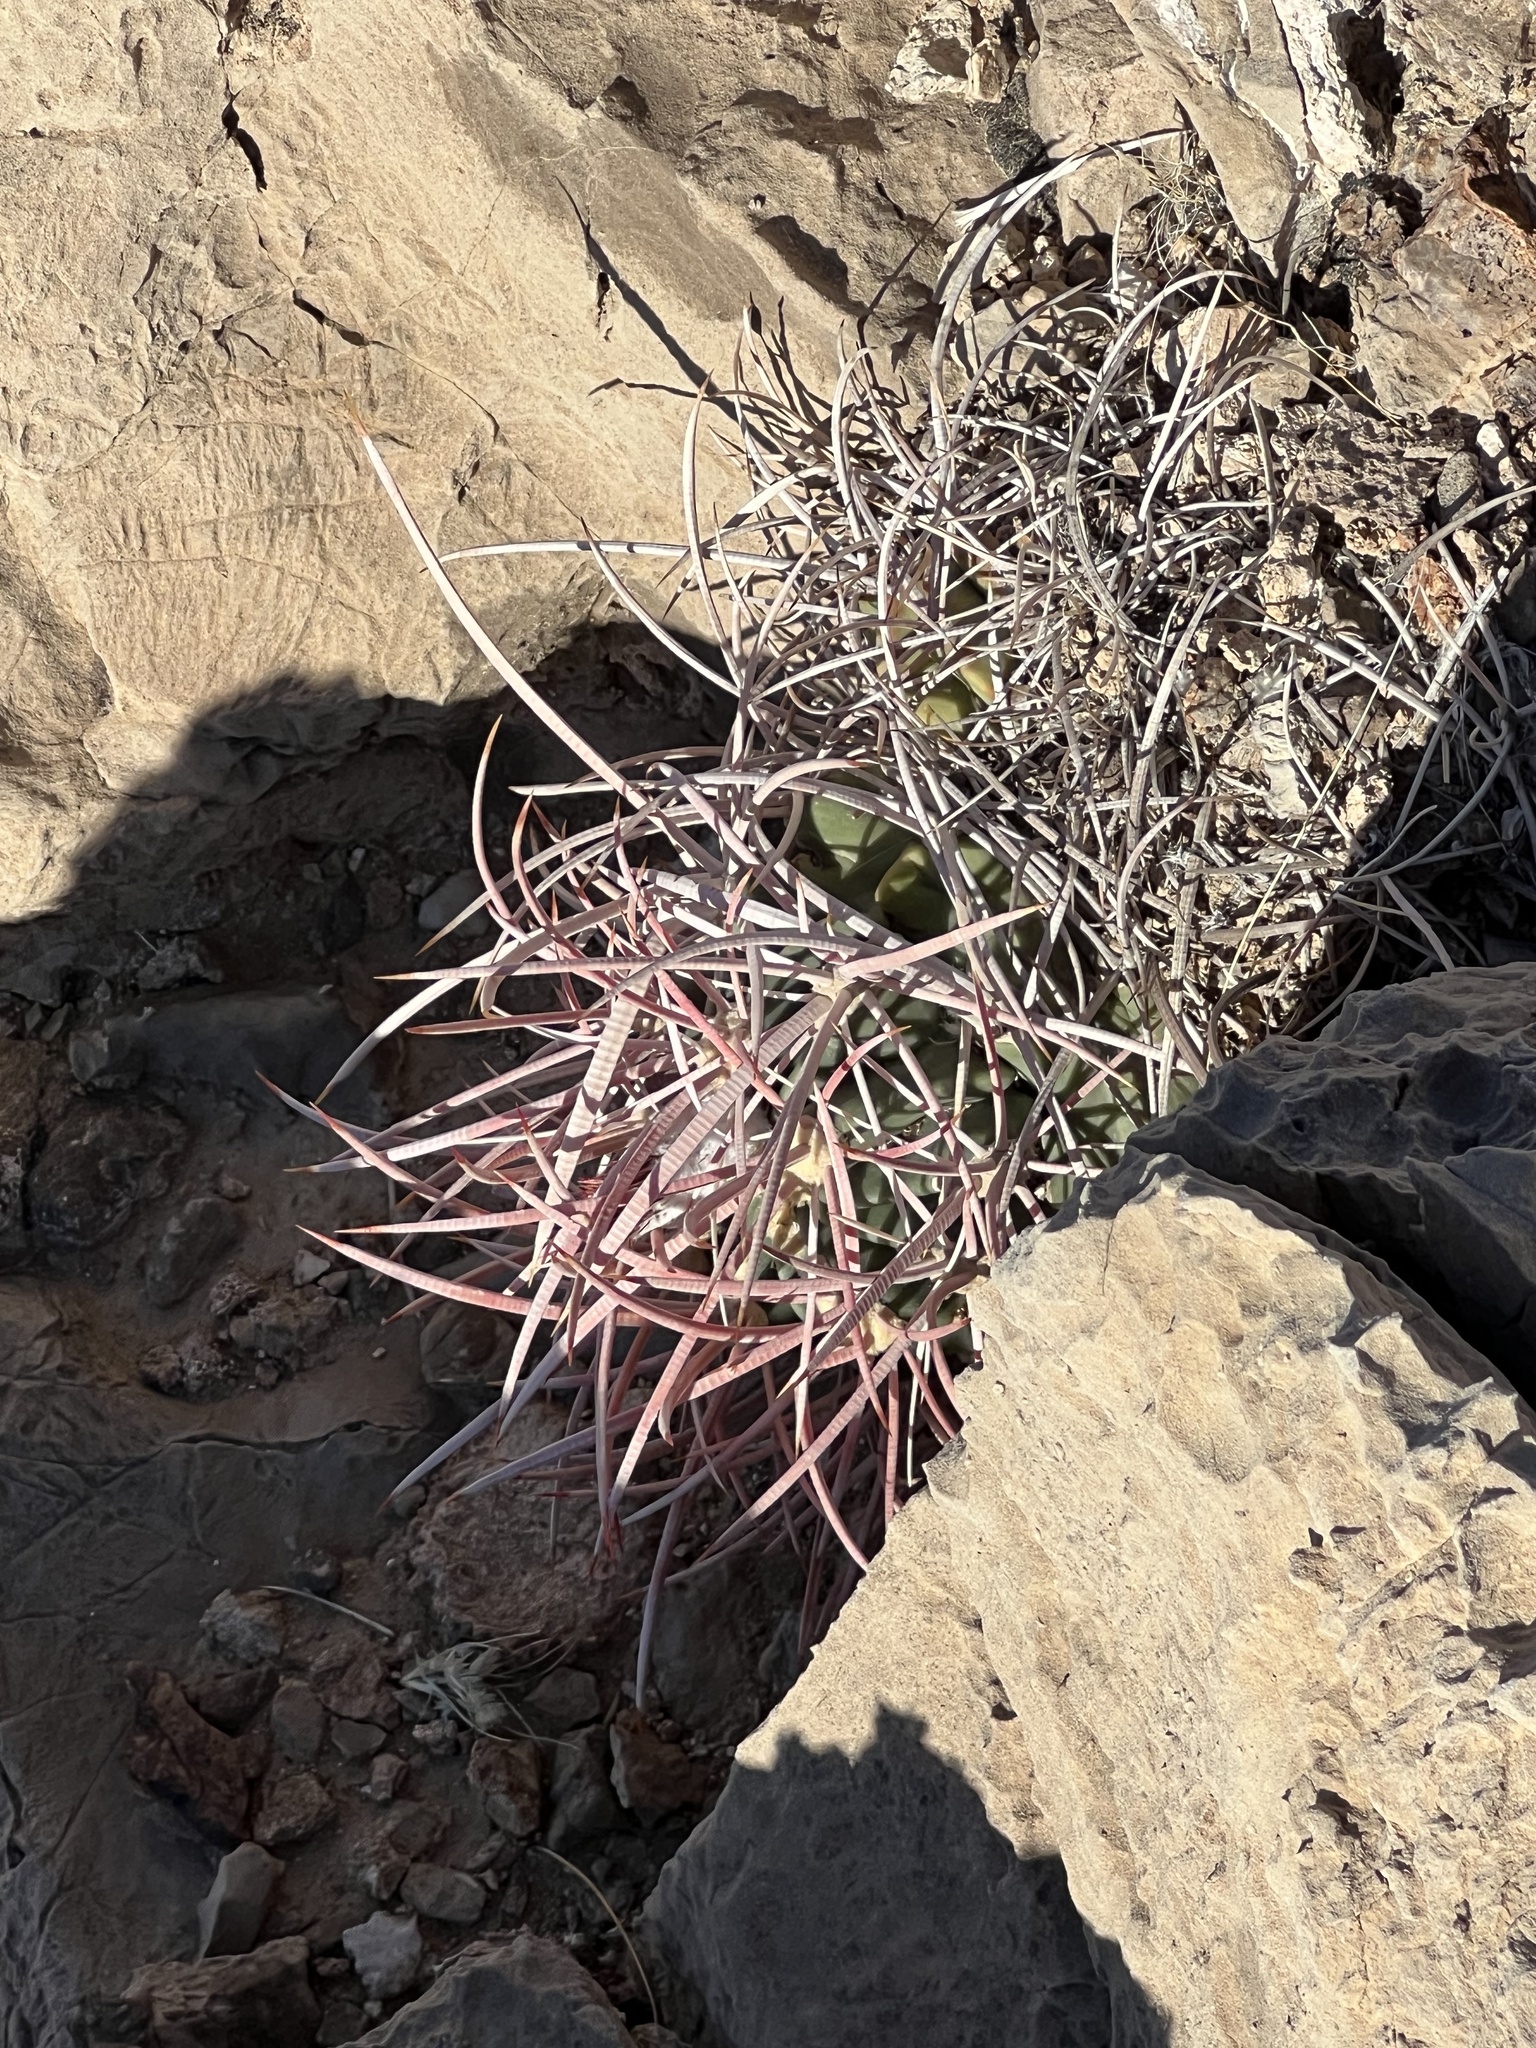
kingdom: Plantae
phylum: Tracheophyta
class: Magnoliopsida
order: Caryophyllales
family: Cactaceae
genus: Echinocactus
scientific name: Echinocactus polycephalus
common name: Cottontop cactus
